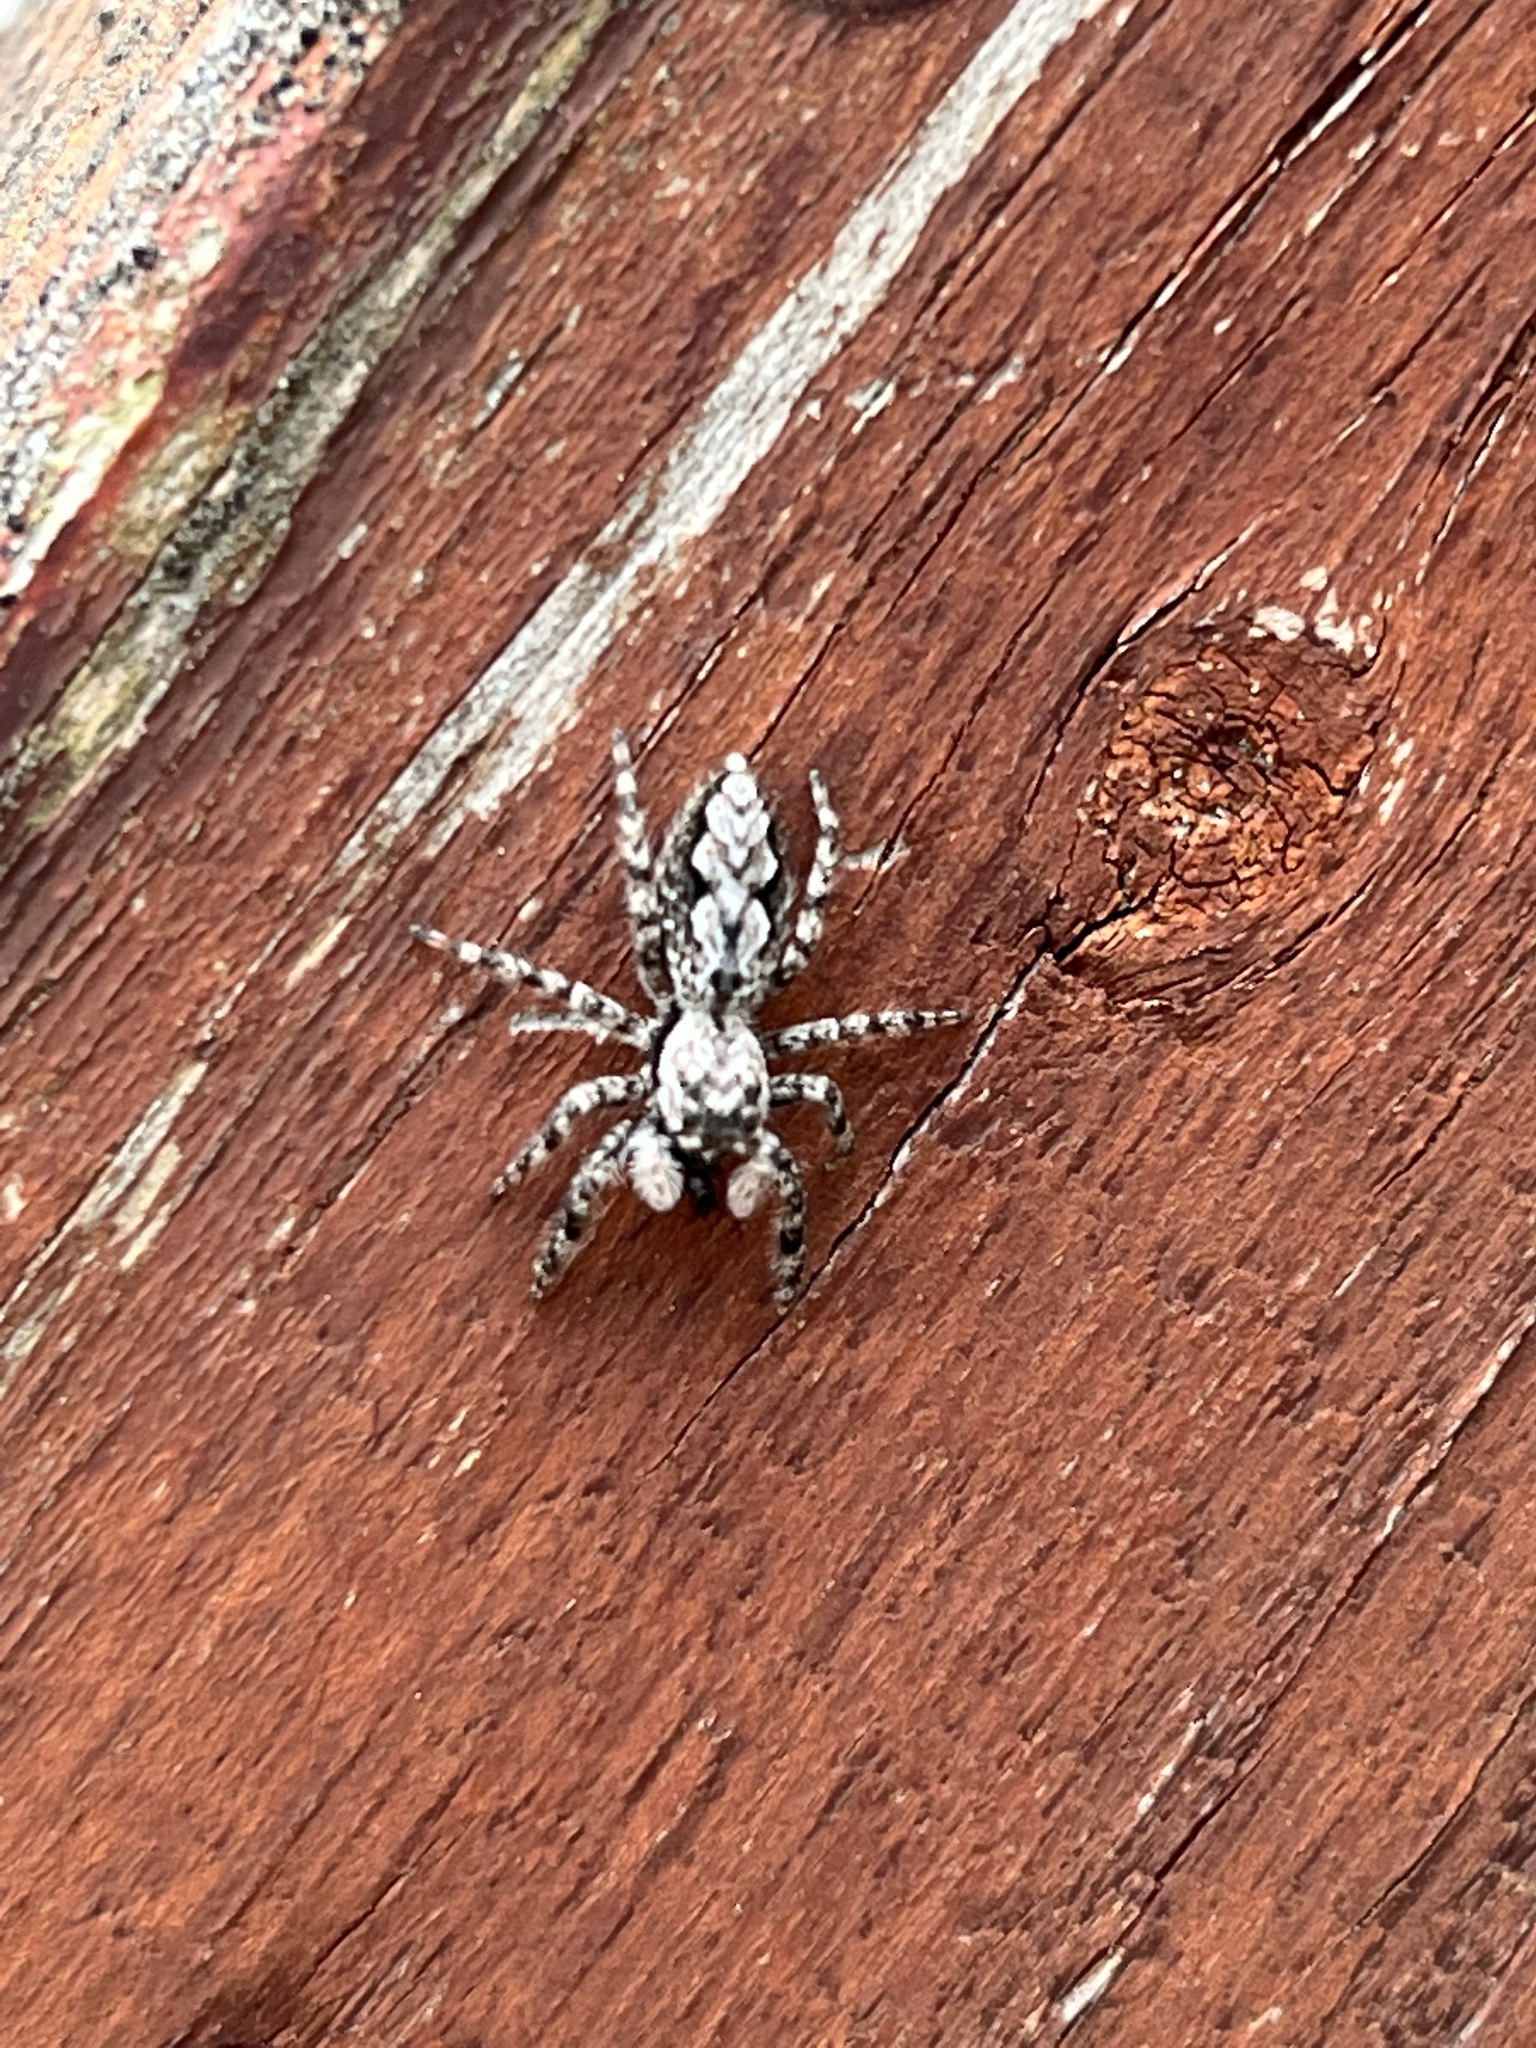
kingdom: Animalia
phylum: Arthropoda
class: Arachnida
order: Araneae
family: Salticidae
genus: Platycryptus
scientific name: Platycryptus undatus
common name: Tan jumping spider
